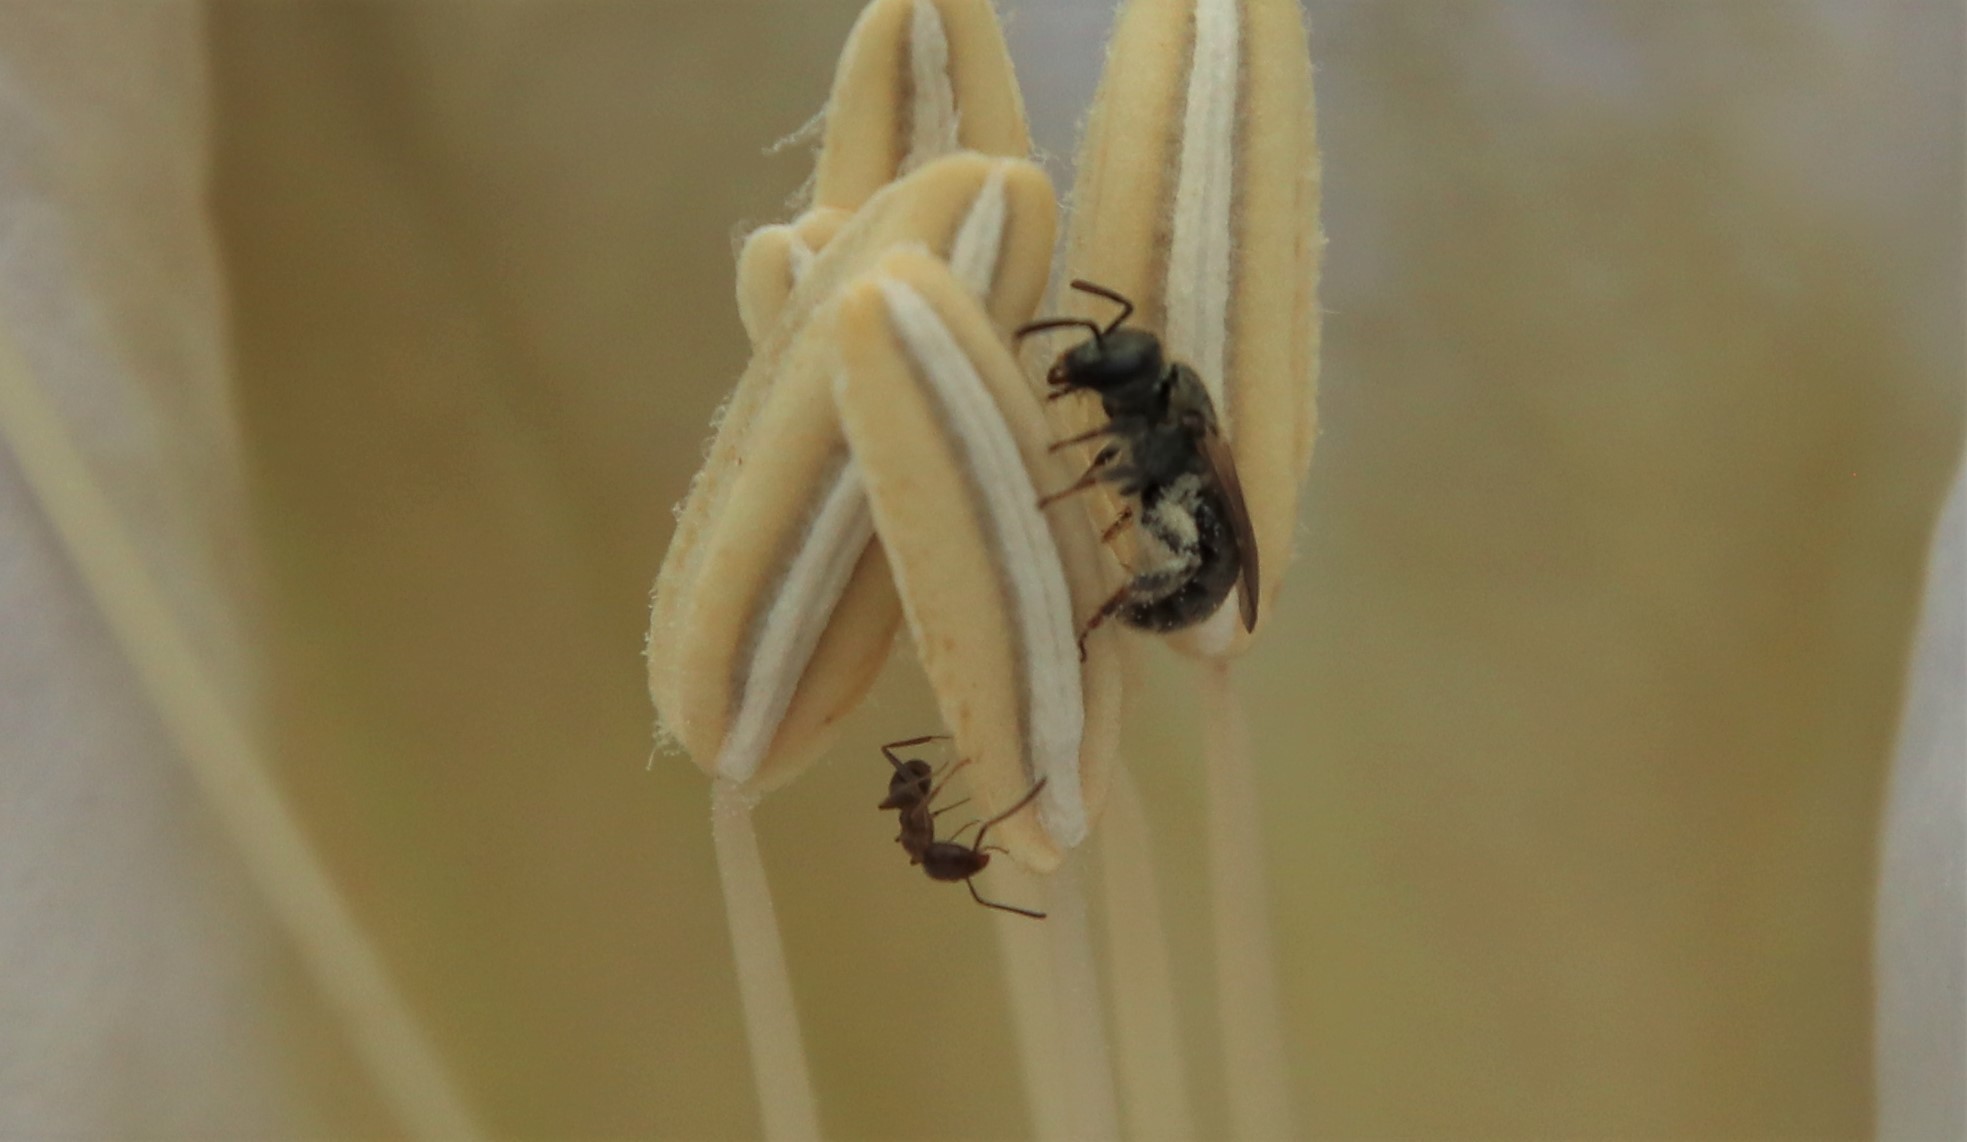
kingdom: Animalia
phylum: Arthropoda
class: Insecta
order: Hymenoptera
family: Formicidae
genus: Linepithema
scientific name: Linepithema humile
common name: Argentine ant
